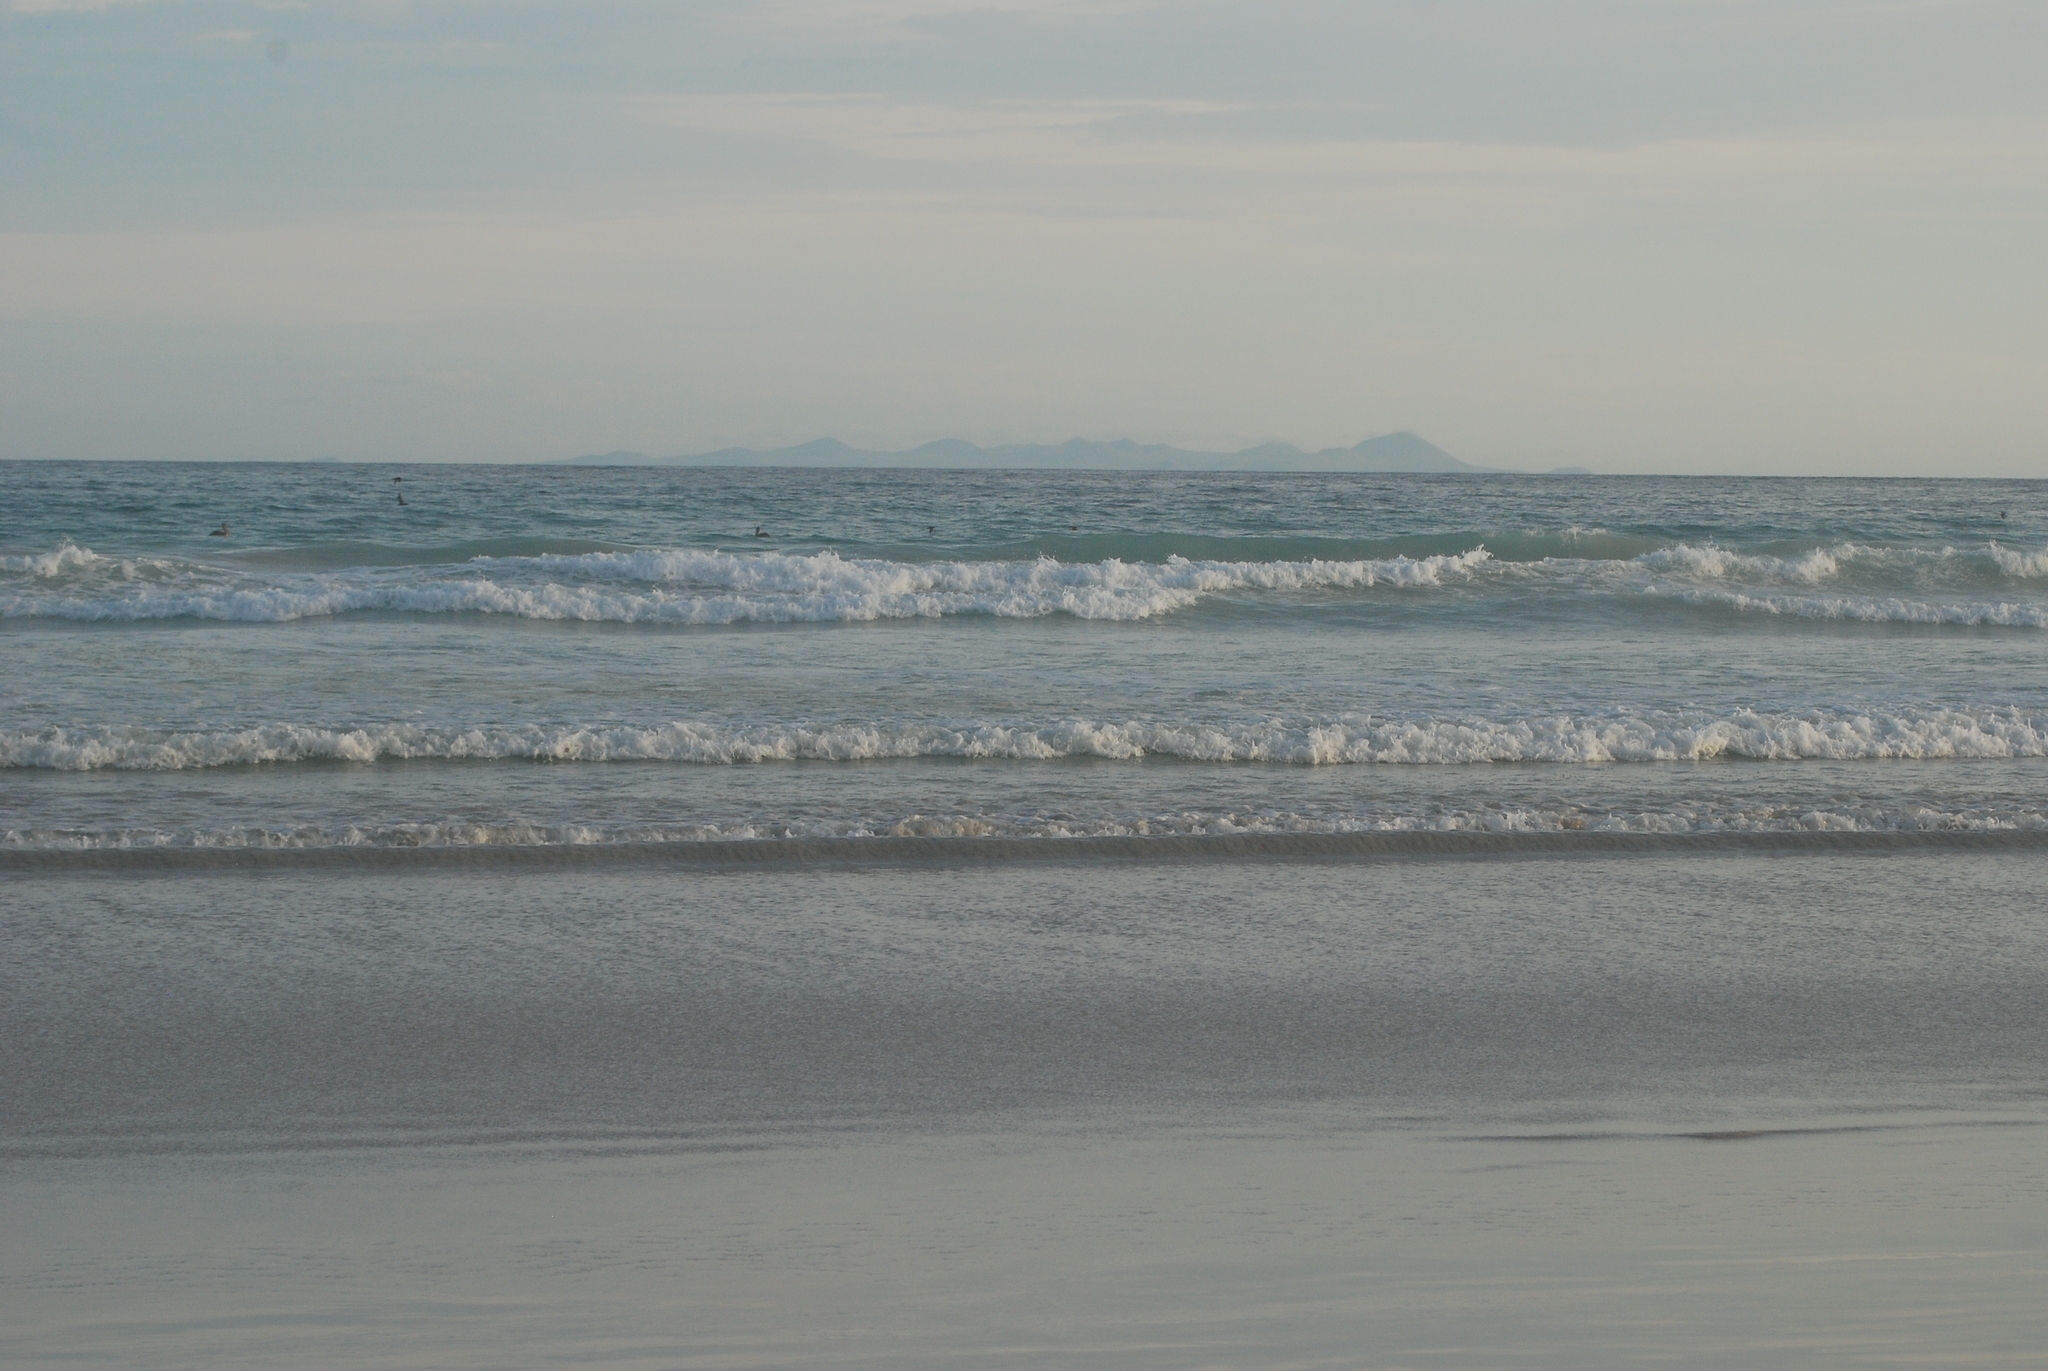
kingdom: Animalia
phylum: Chordata
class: Aves
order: Pelecaniformes
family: Pelecanidae
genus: Pelecanus
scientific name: Pelecanus occidentalis
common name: Brown pelican
